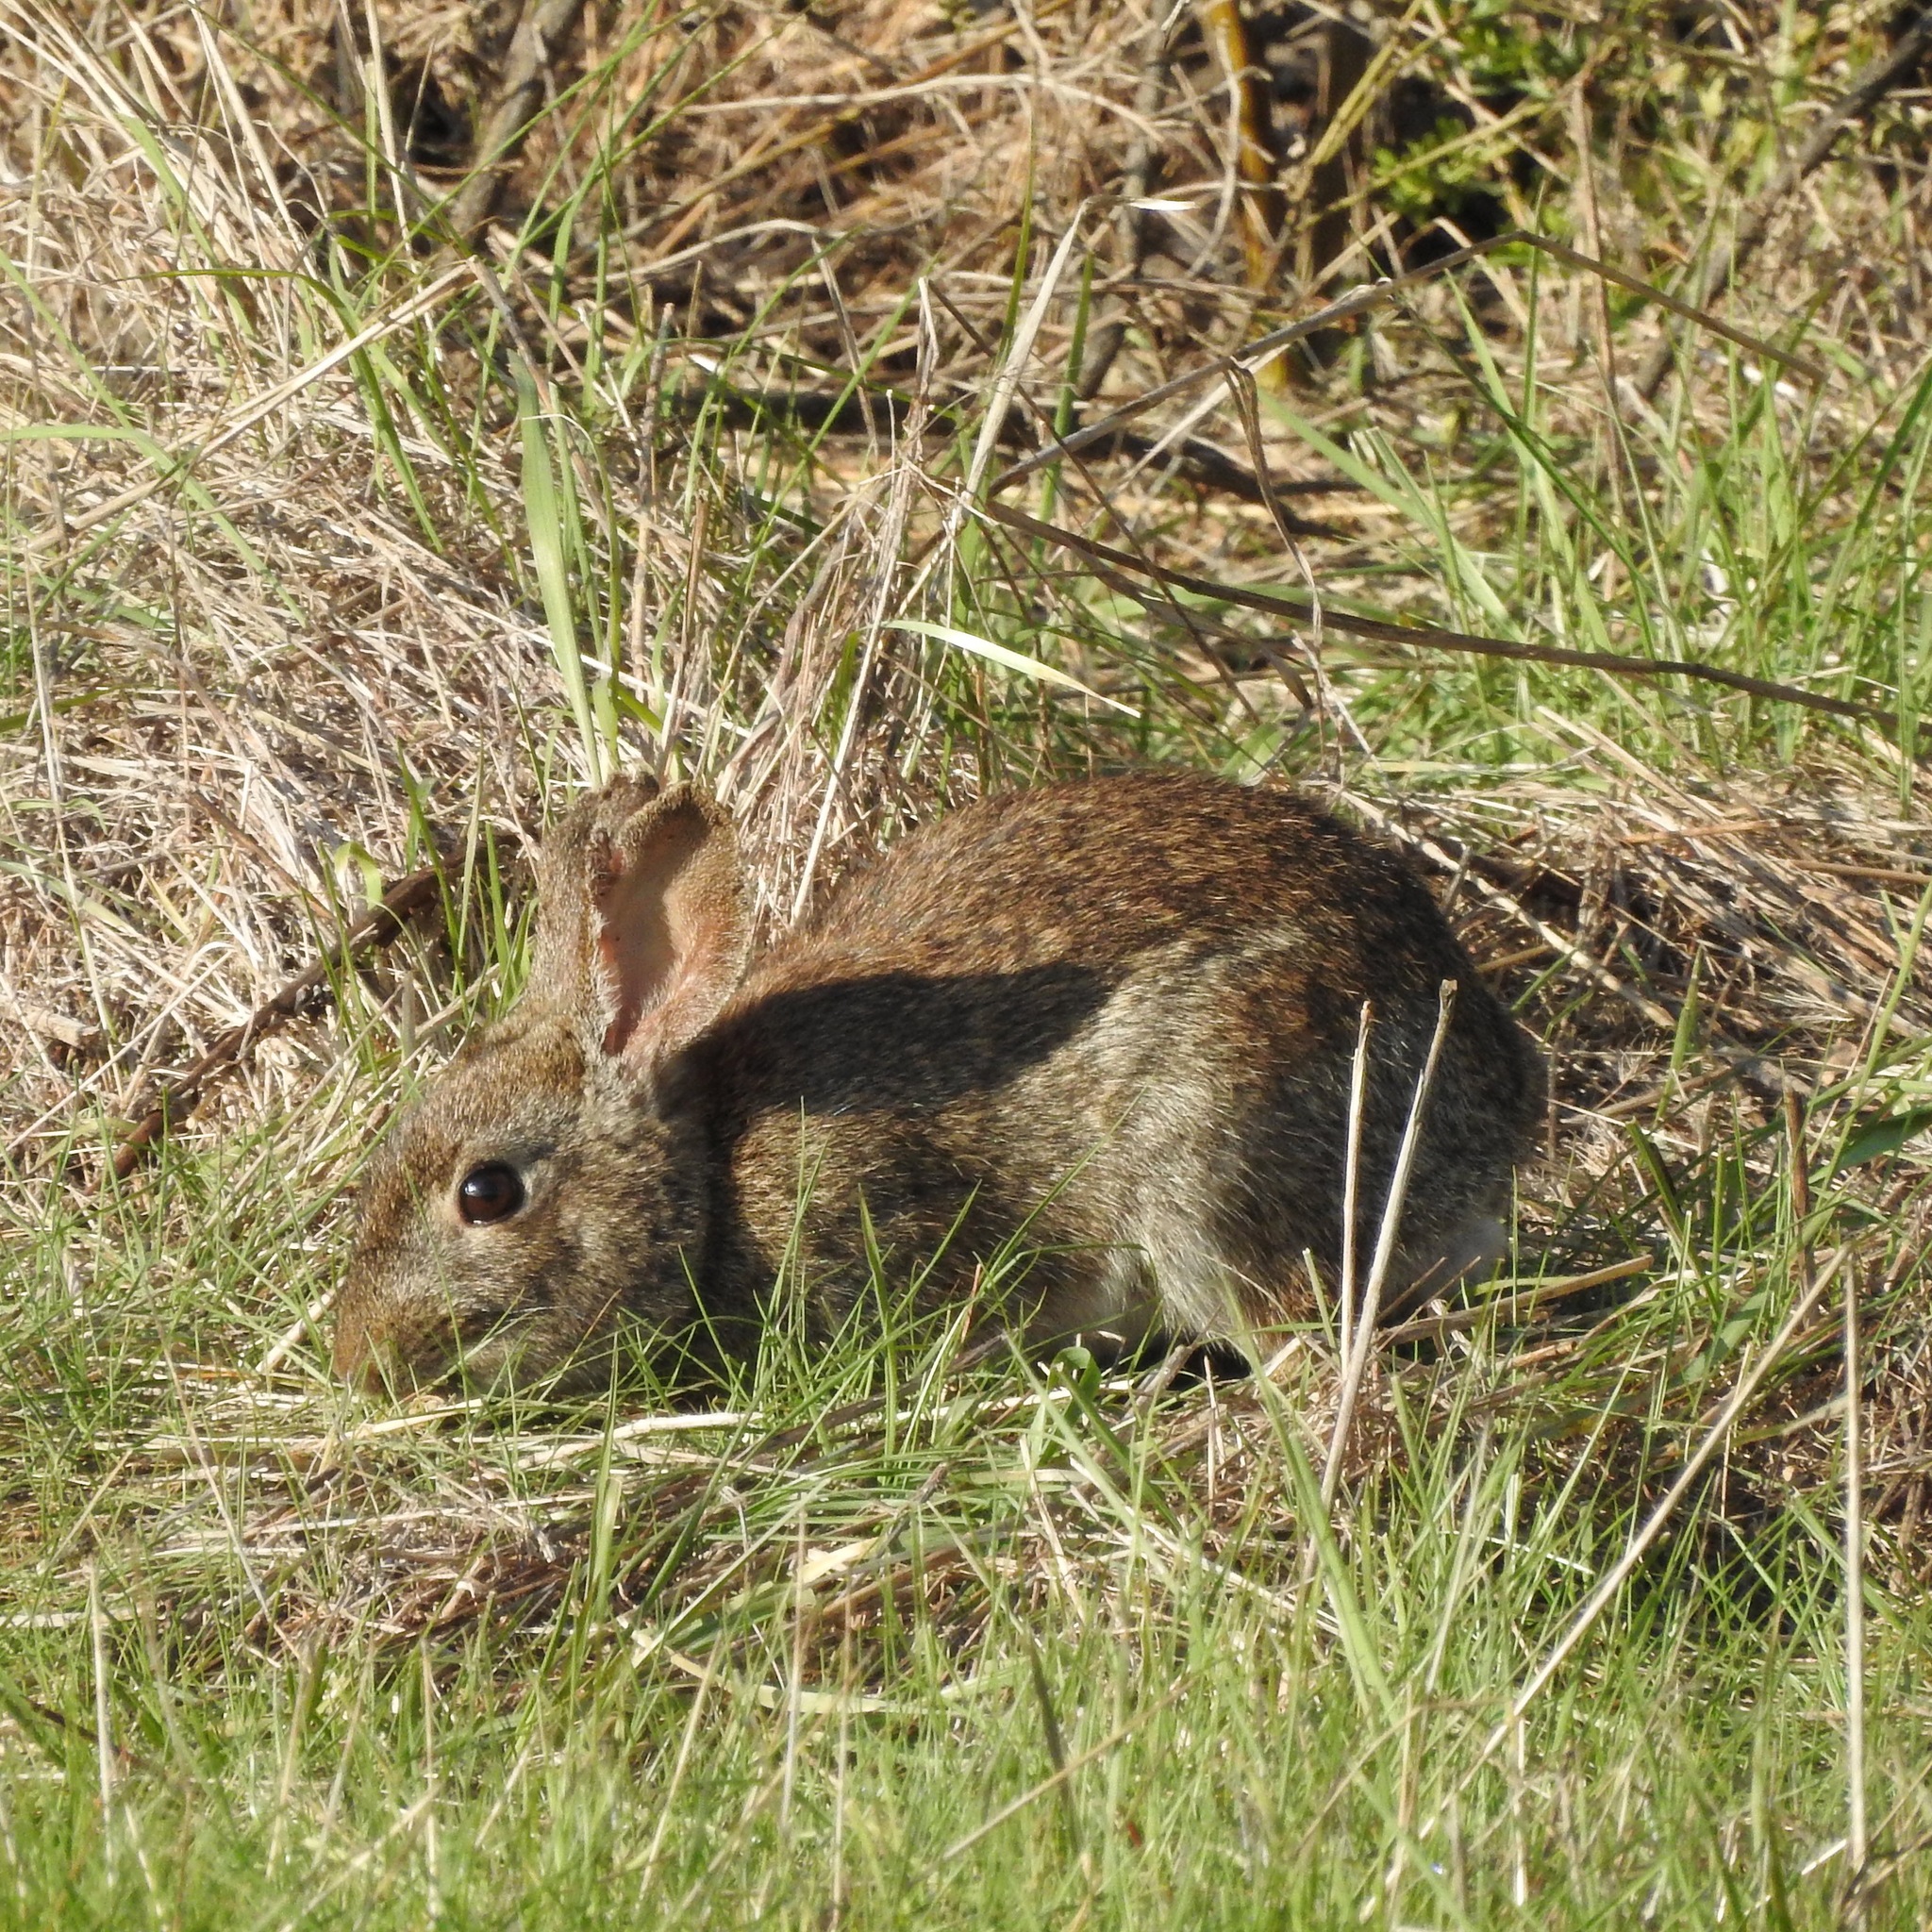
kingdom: Animalia
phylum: Chordata
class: Mammalia
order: Lagomorpha
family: Leporidae
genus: Sylvilagus
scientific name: Sylvilagus bachmani
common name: Brush rabbit
